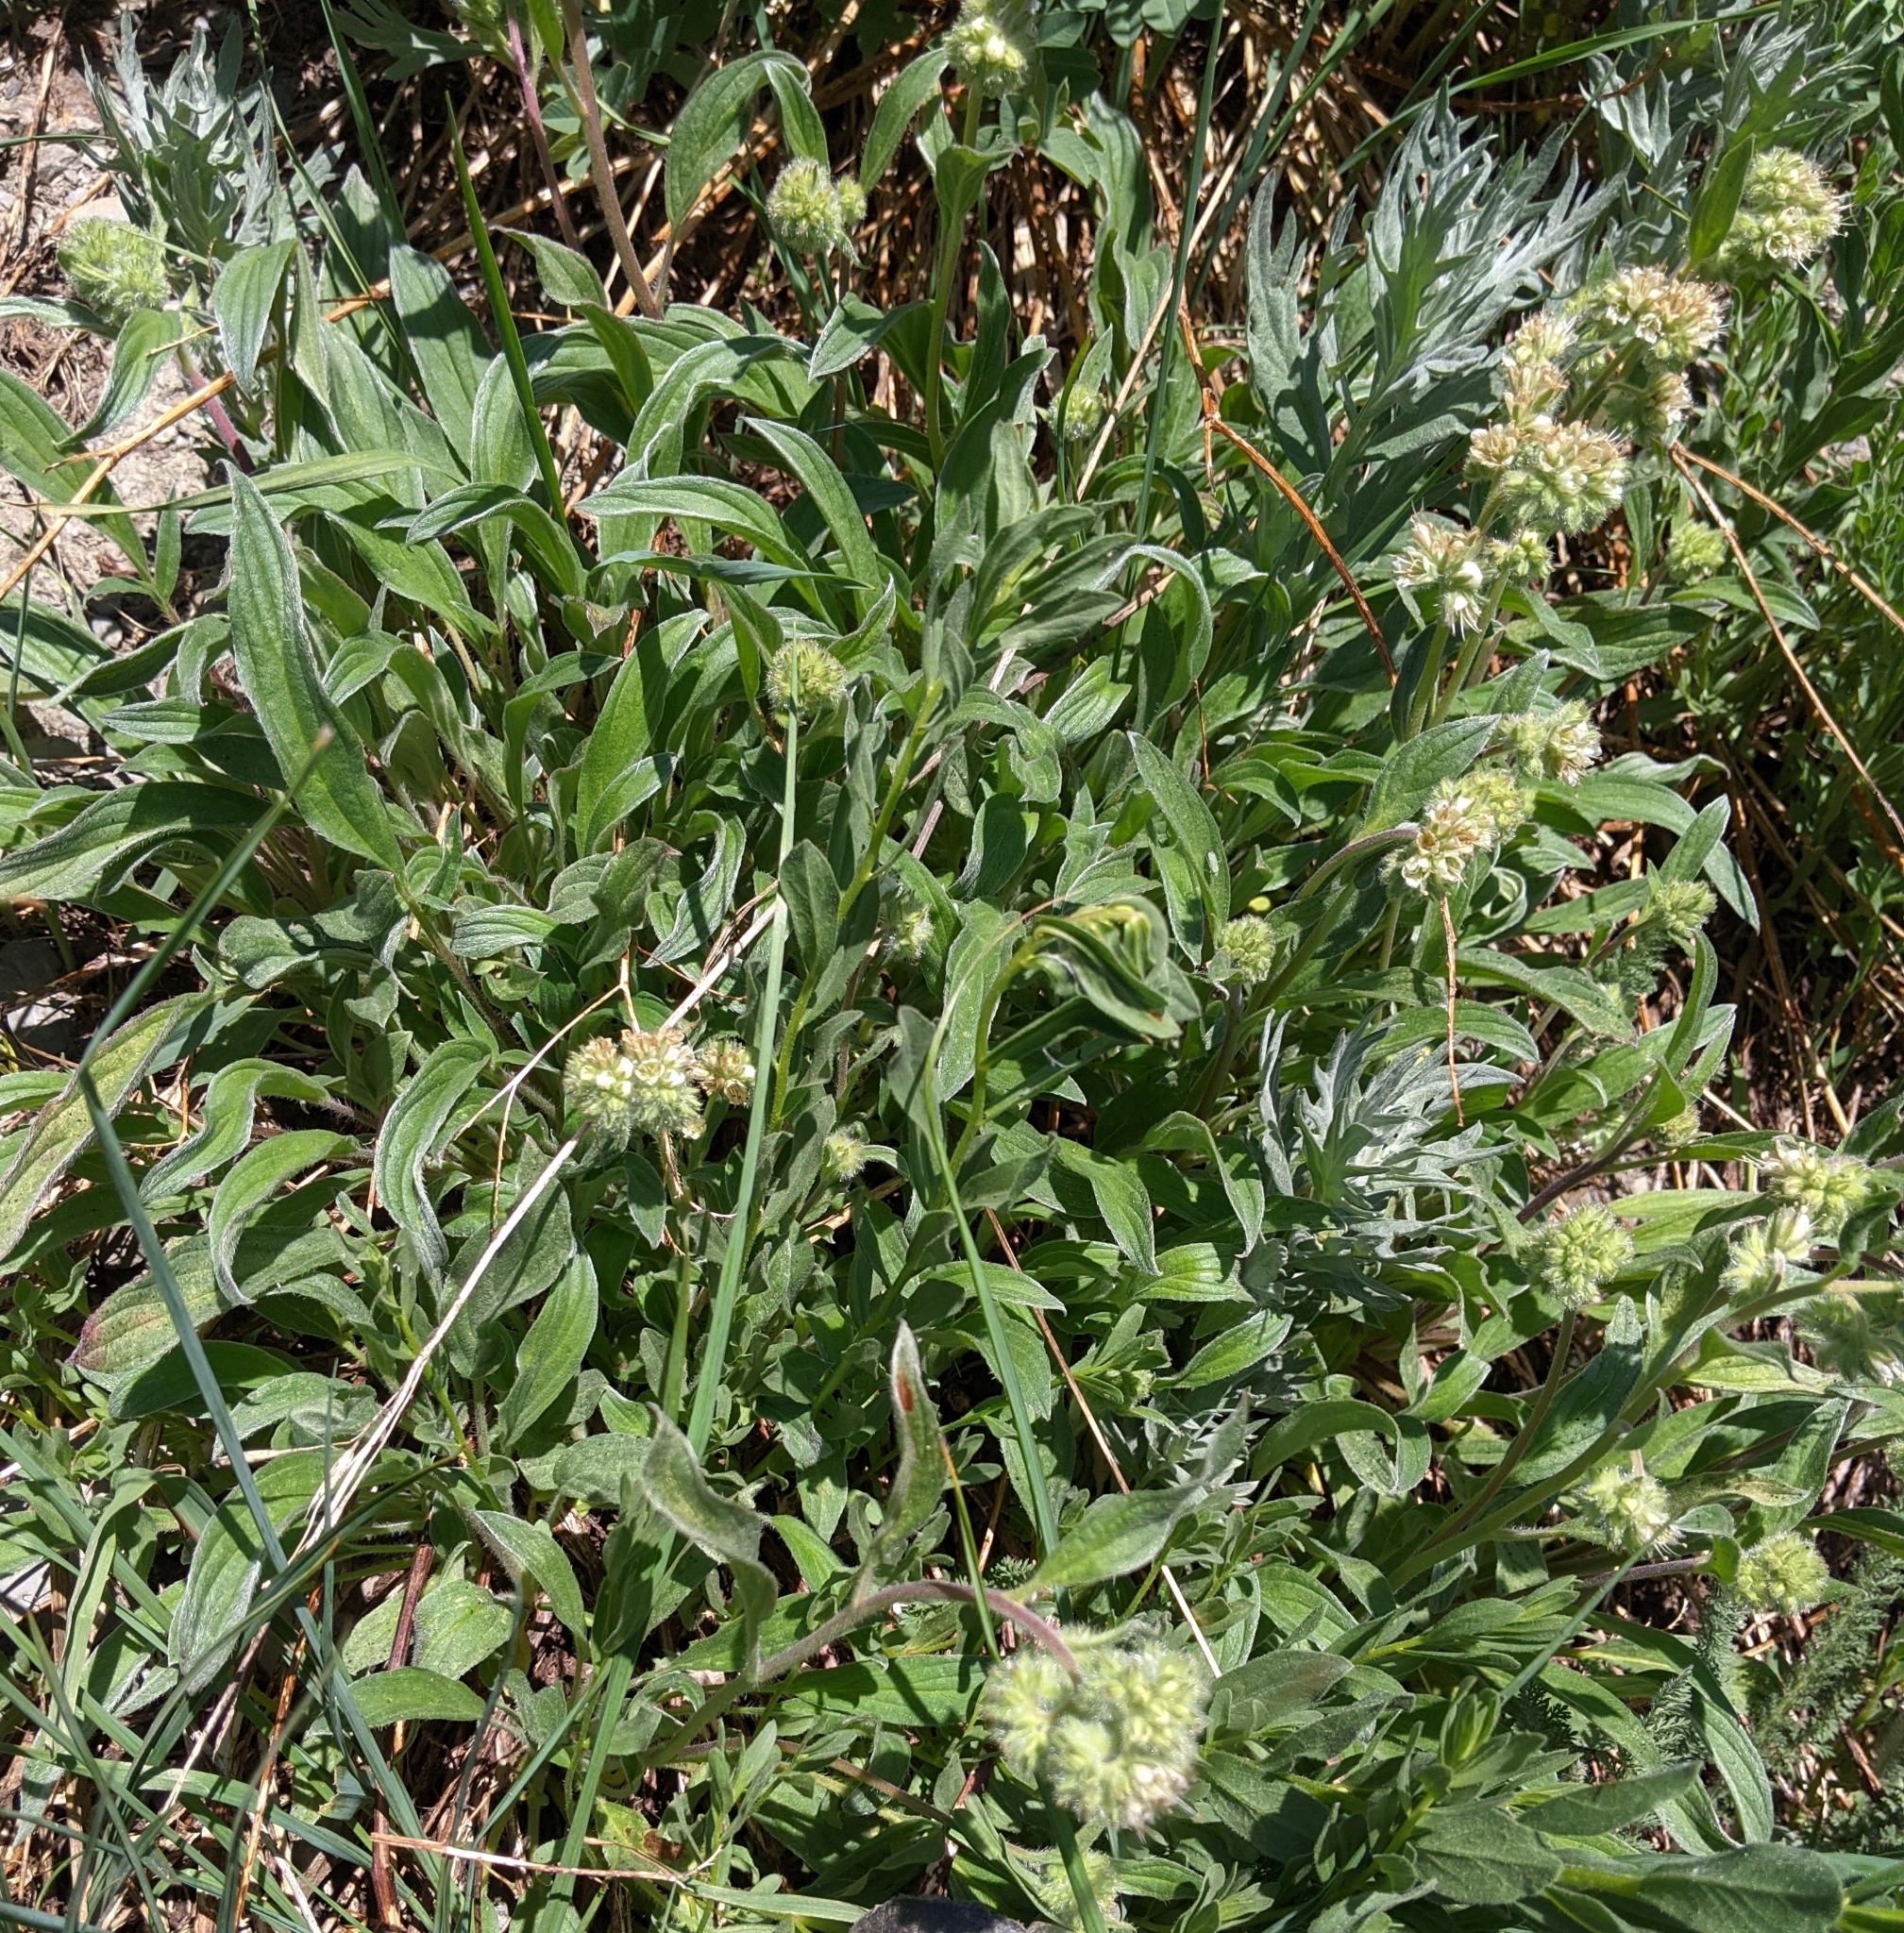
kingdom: Plantae
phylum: Tracheophyta
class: Magnoliopsida
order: Boraginales
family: Hydrophyllaceae
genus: Phacelia
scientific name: Phacelia hastata
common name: Silver-leaved phacelia
